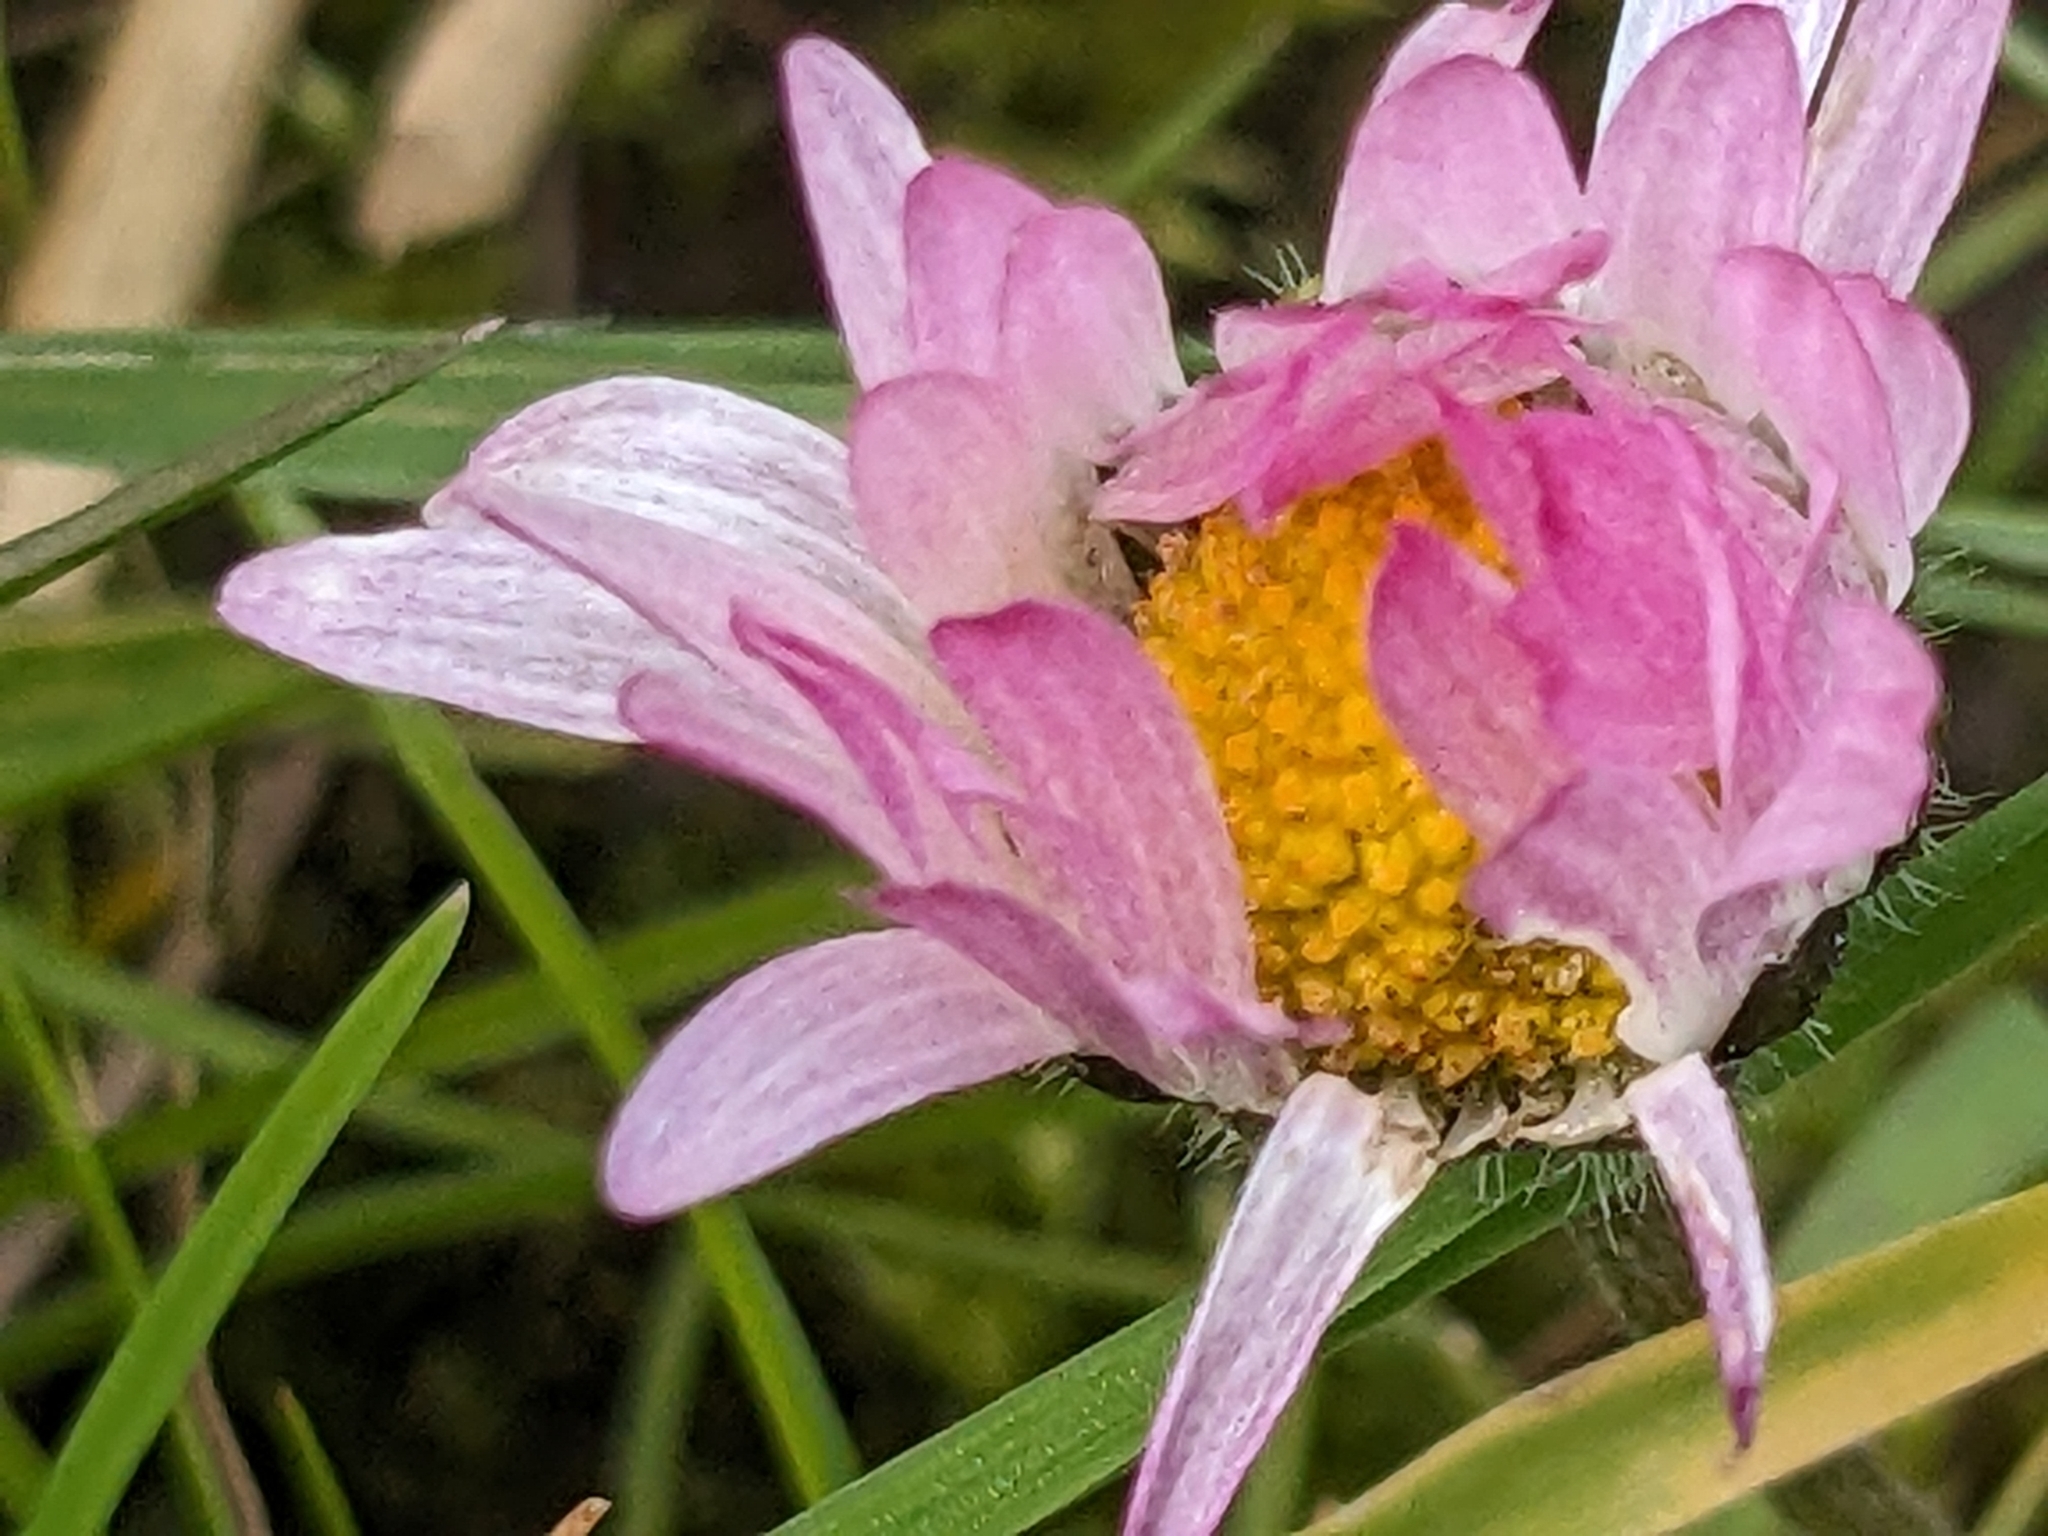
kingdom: Plantae
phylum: Tracheophyta
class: Magnoliopsida
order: Asterales
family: Asteraceae
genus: Bellis
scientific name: Bellis perennis
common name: Lawndaisy
